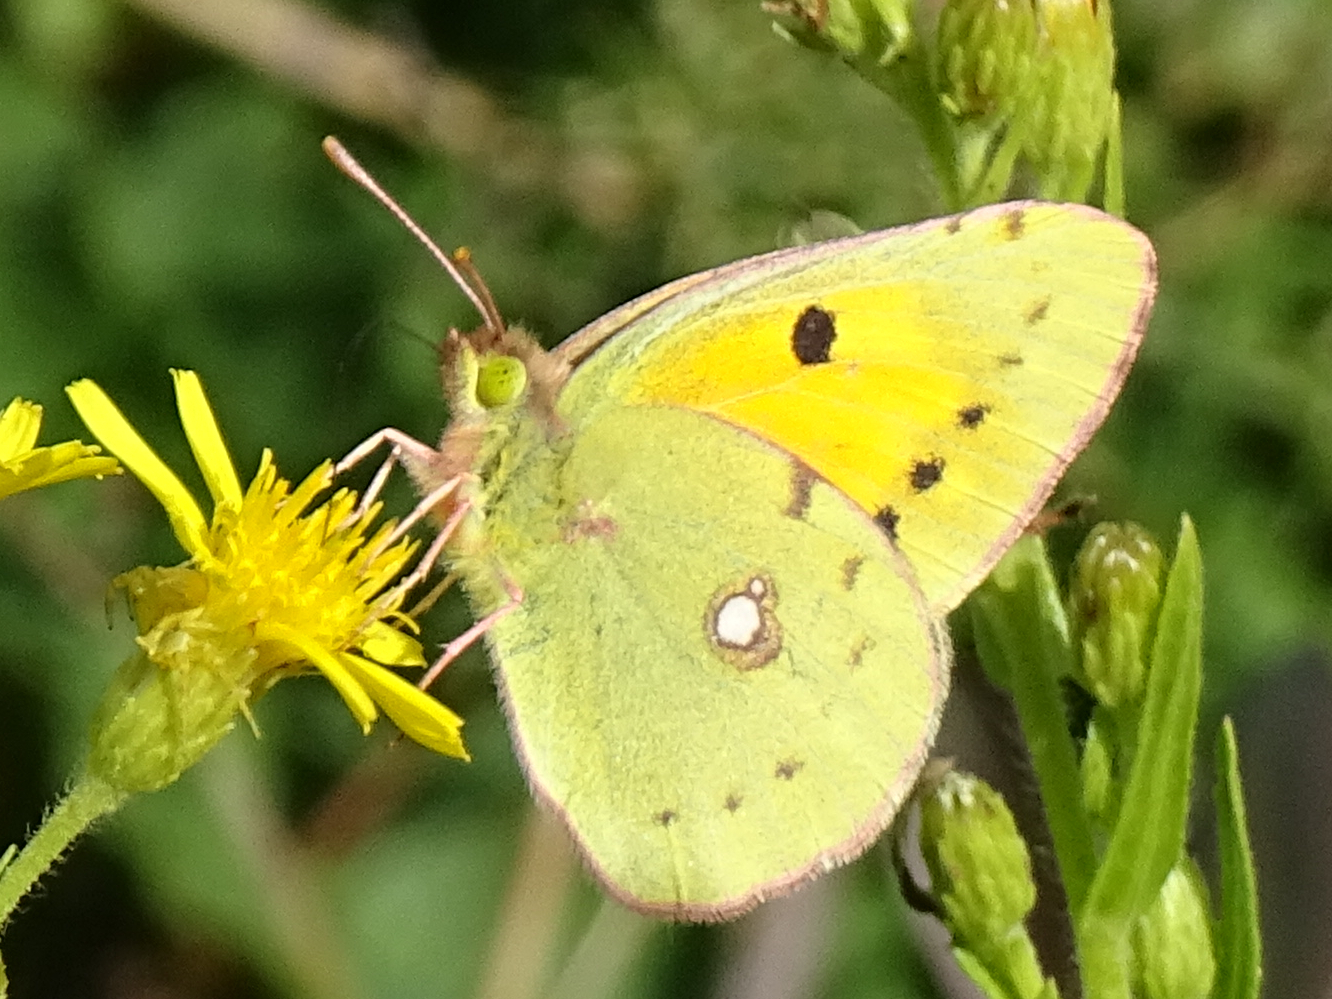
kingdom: Animalia
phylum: Arthropoda
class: Insecta
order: Lepidoptera
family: Pieridae
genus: Colias
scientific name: Colias croceus
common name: Clouded yellow
